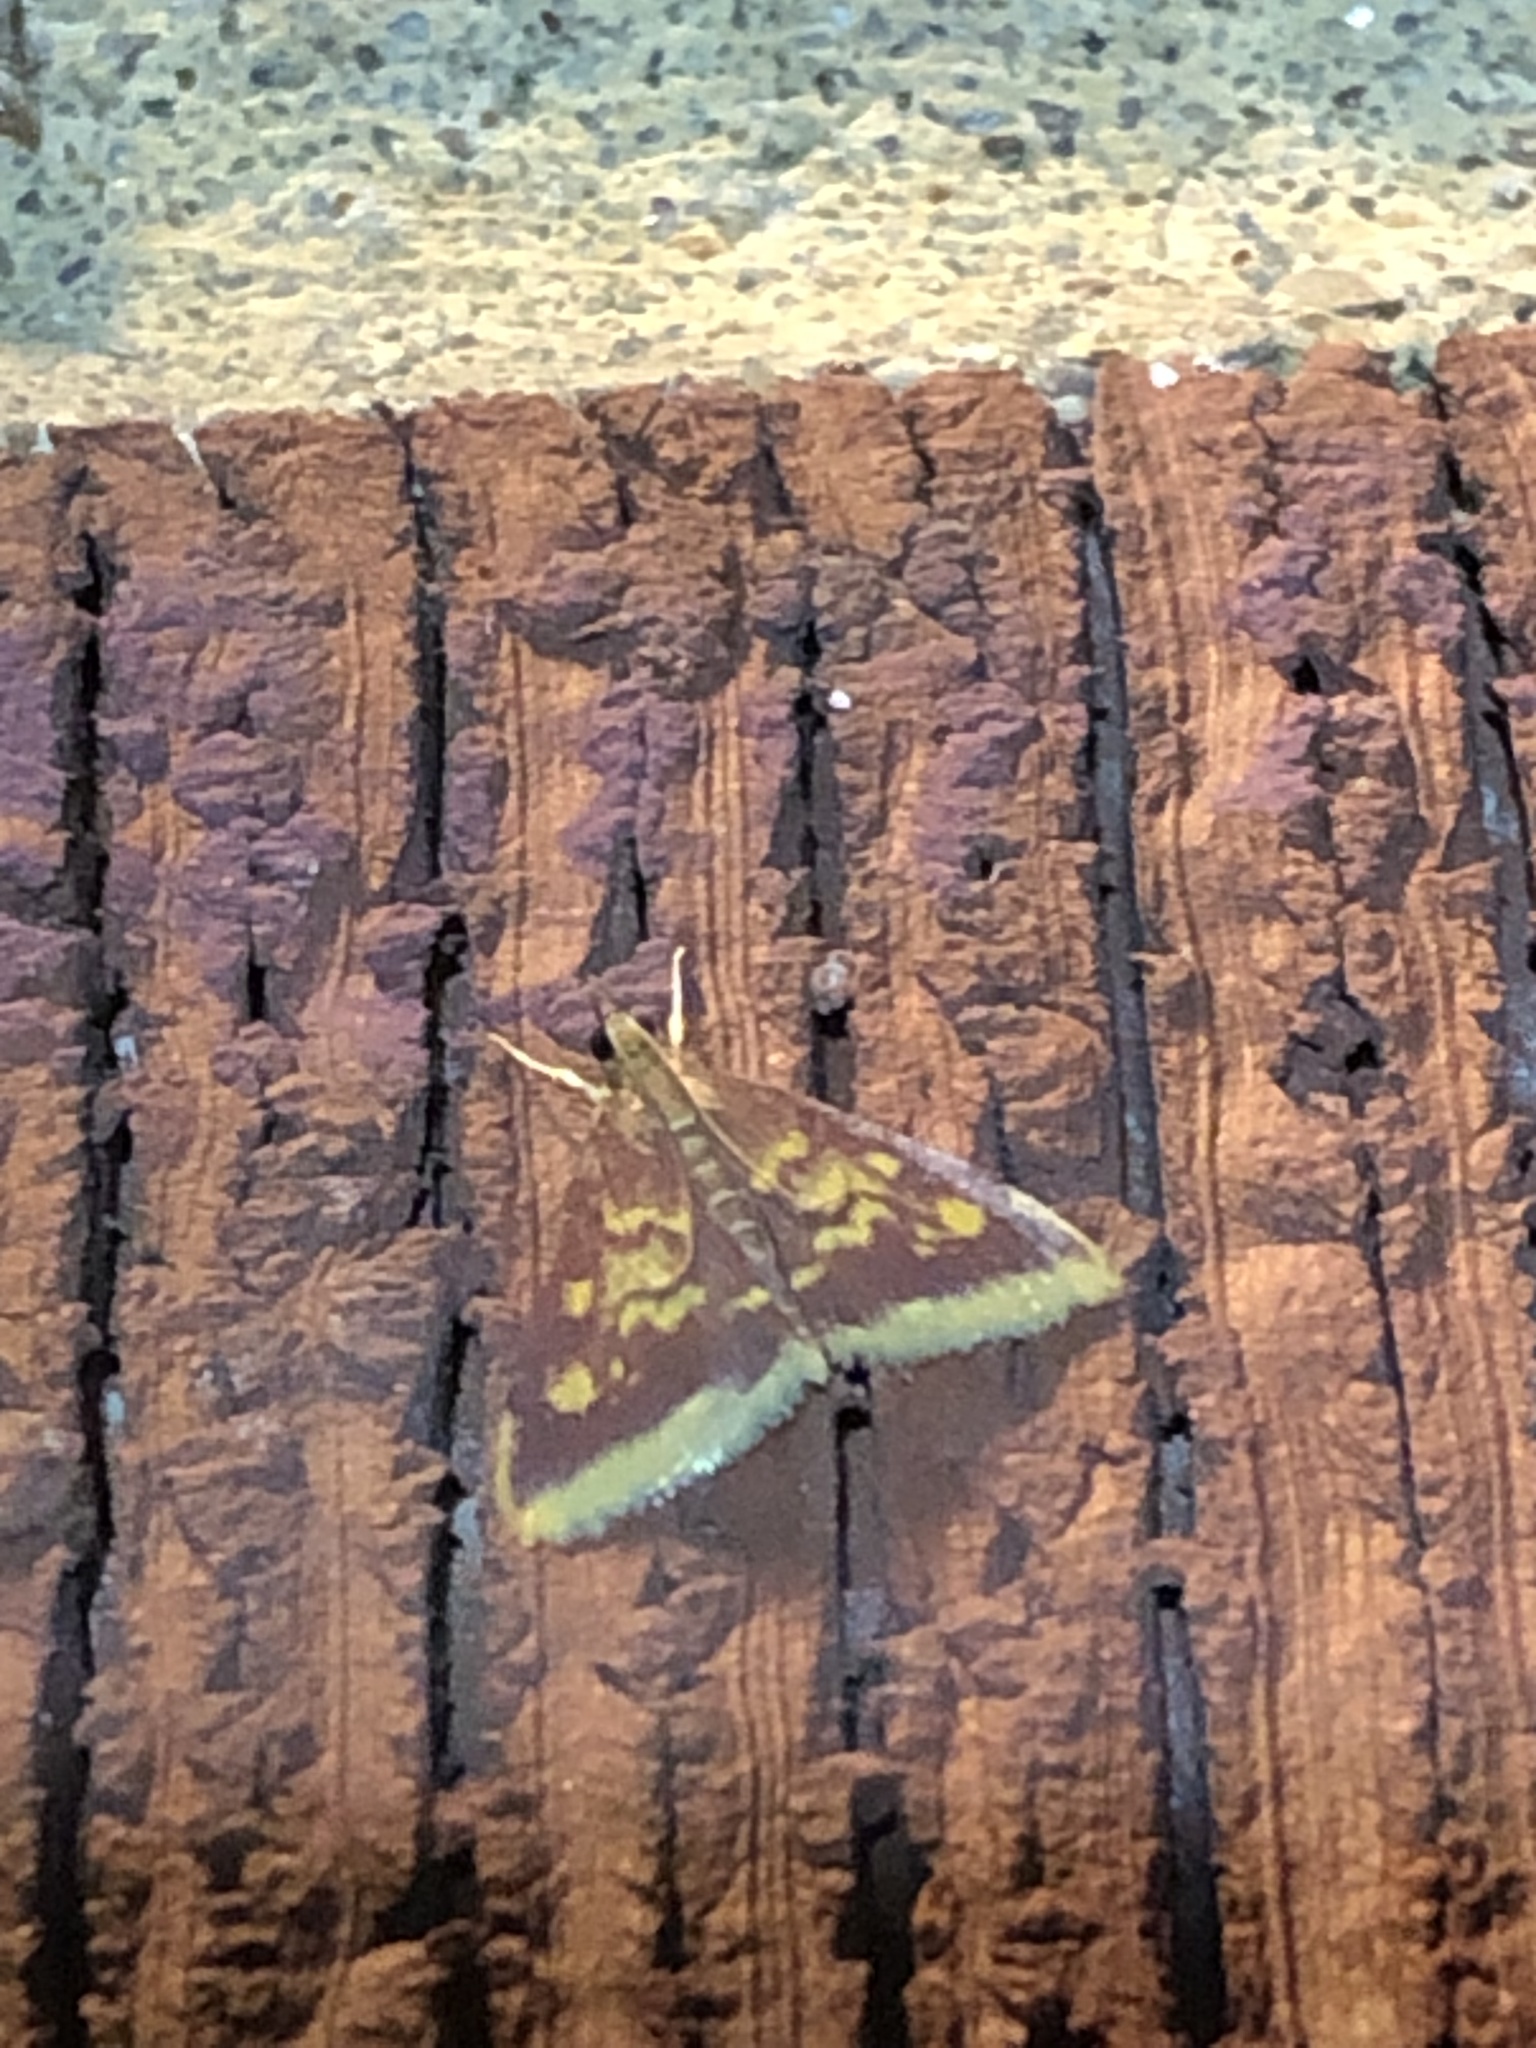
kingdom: Animalia
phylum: Arthropoda
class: Insecta
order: Lepidoptera
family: Crambidae
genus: Pyrausta
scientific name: Pyrausta acrionalis
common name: Mint-loving pyrausta moth
